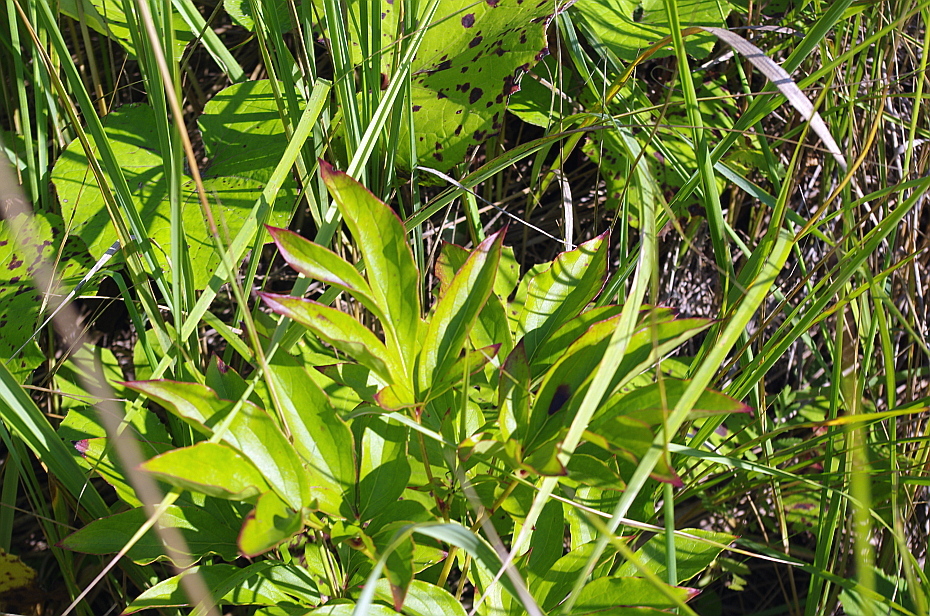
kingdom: Plantae
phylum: Tracheophyta
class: Magnoliopsida
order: Saxifragales
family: Paeoniaceae
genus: Paeonia
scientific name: Paeonia lactiflora
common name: Chinese peony
